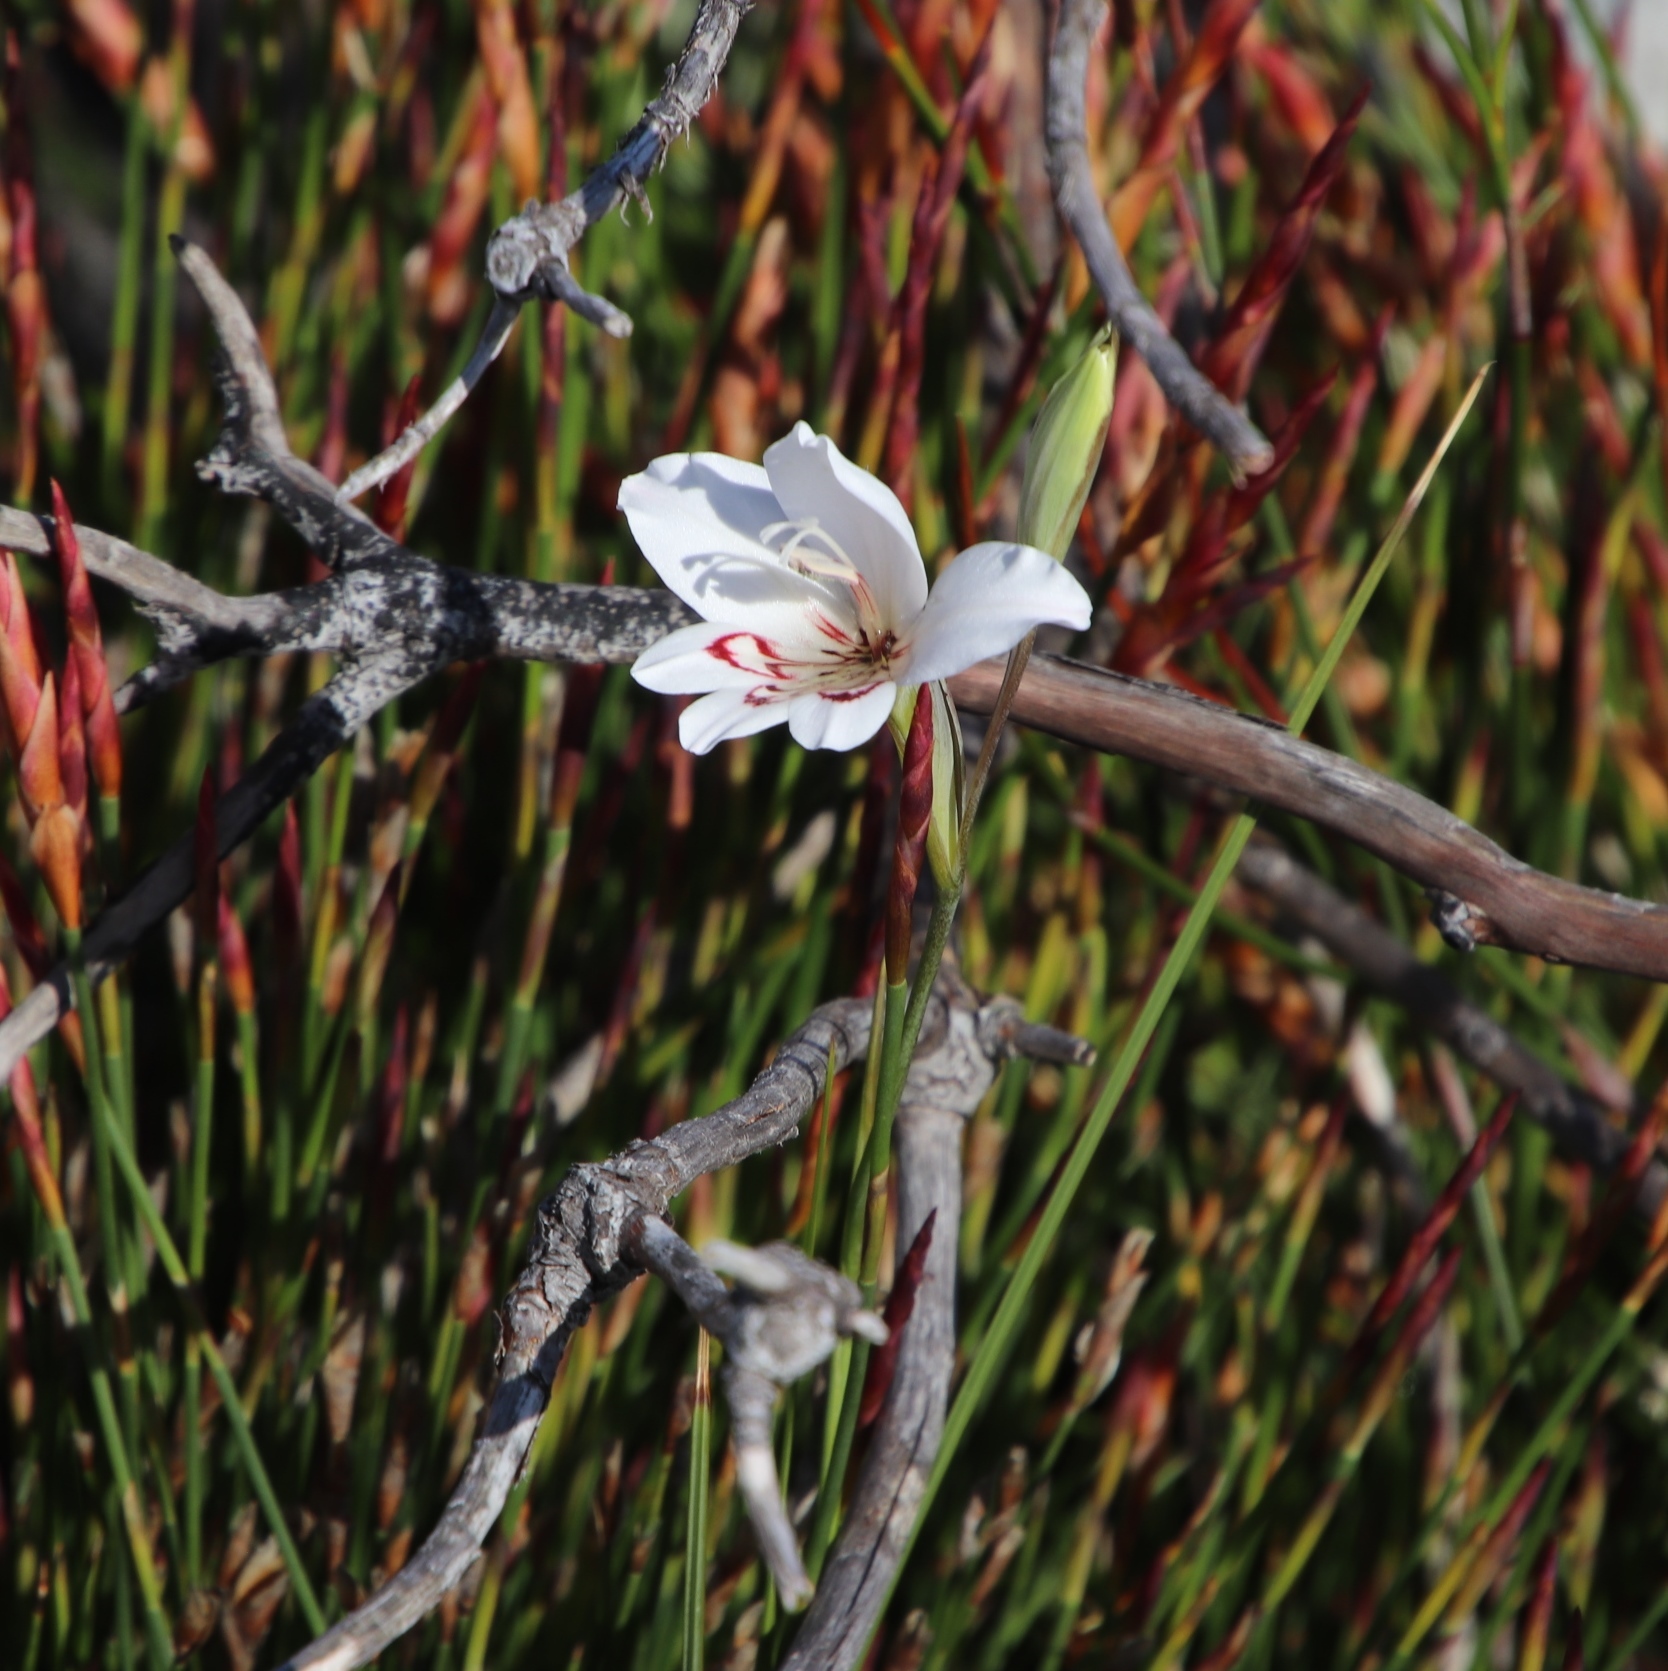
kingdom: Plantae
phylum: Tracheophyta
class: Liliopsida
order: Asparagales
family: Iridaceae
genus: Gladiolus
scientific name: Gladiolus debilis
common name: Painted-lady
